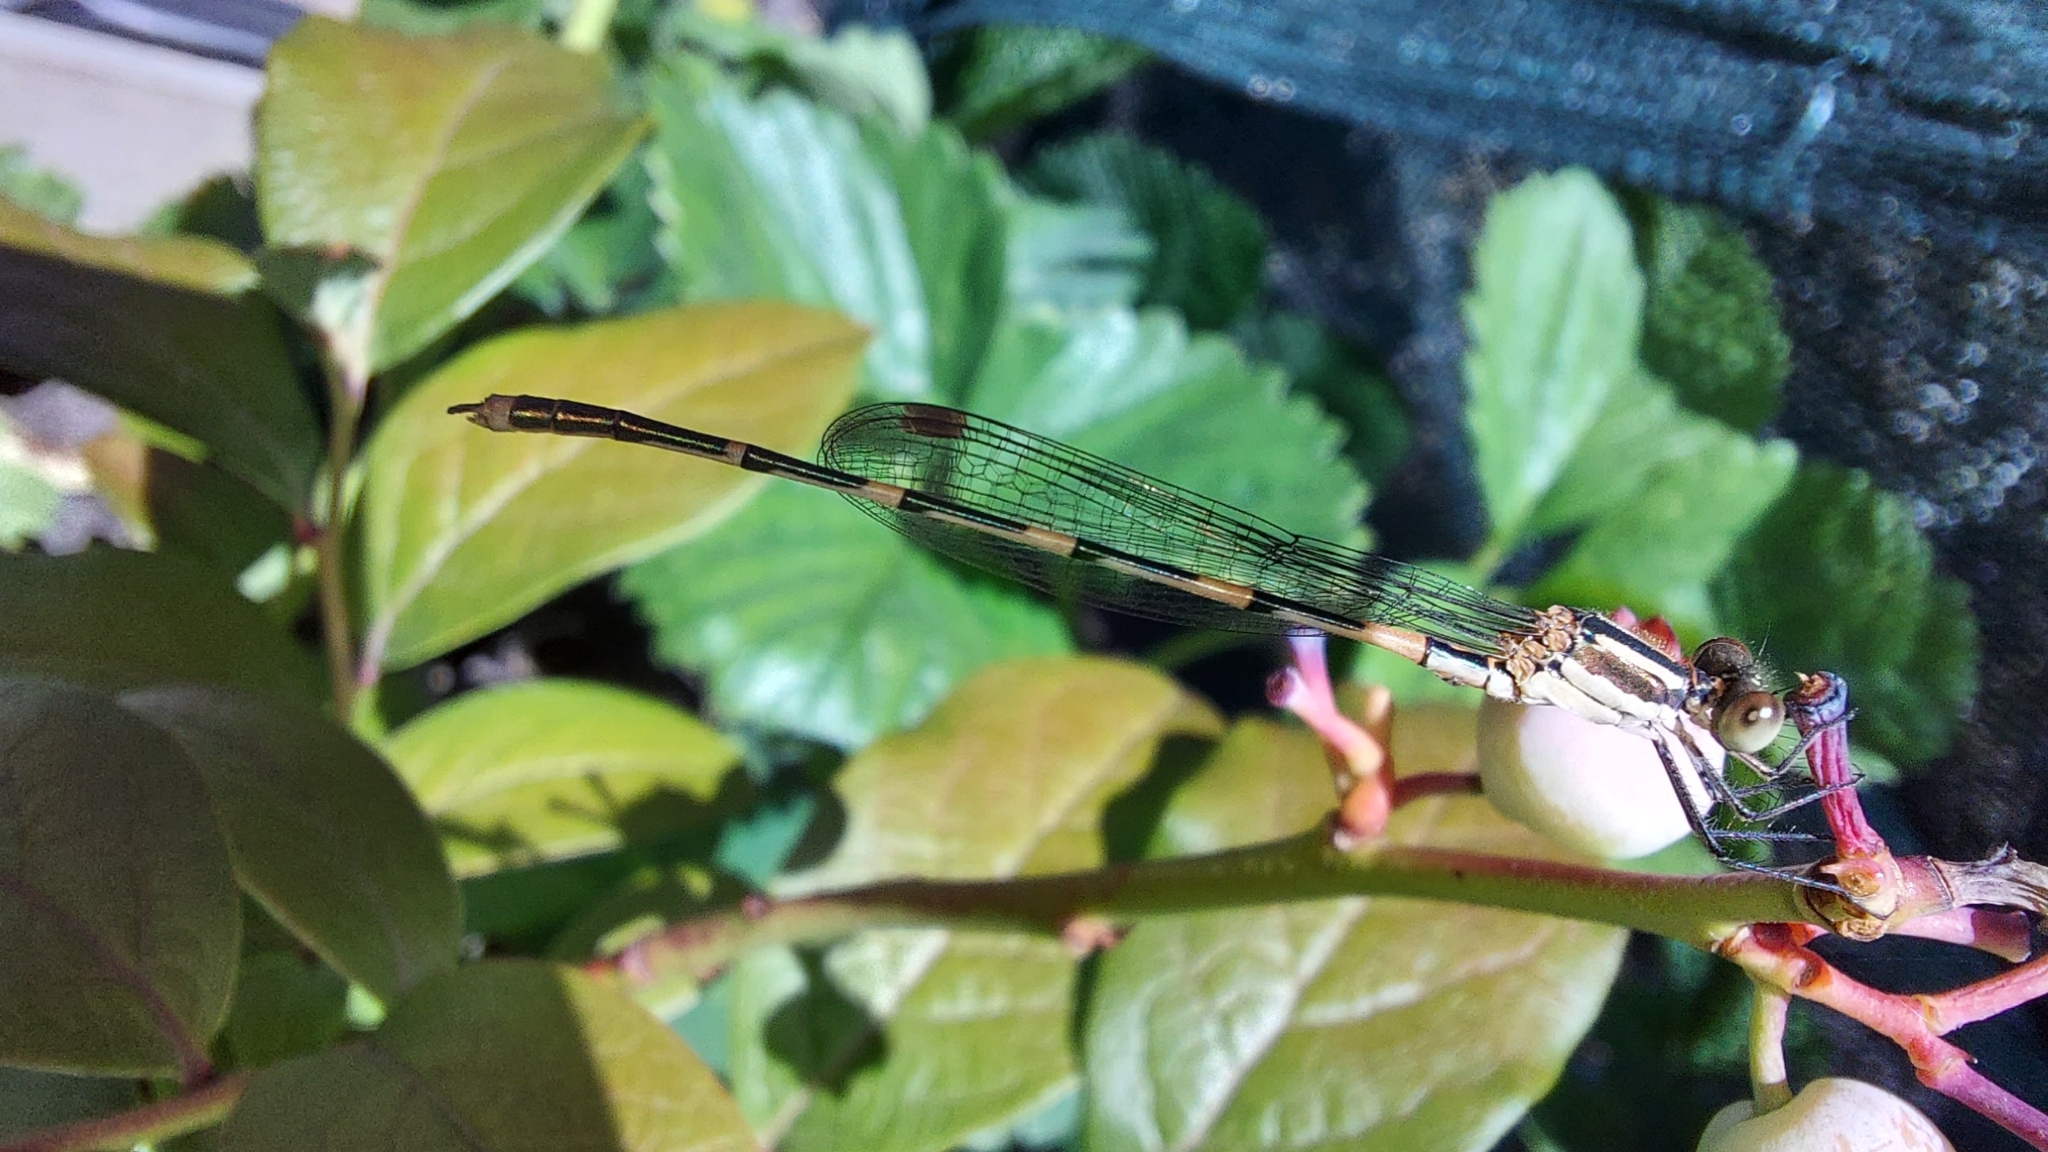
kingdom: Animalia
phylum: Arthropoda
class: Insecta
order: Odonata
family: Lestidae
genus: Austrolestes
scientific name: Austrolestes leda
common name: Wandering ringtail
